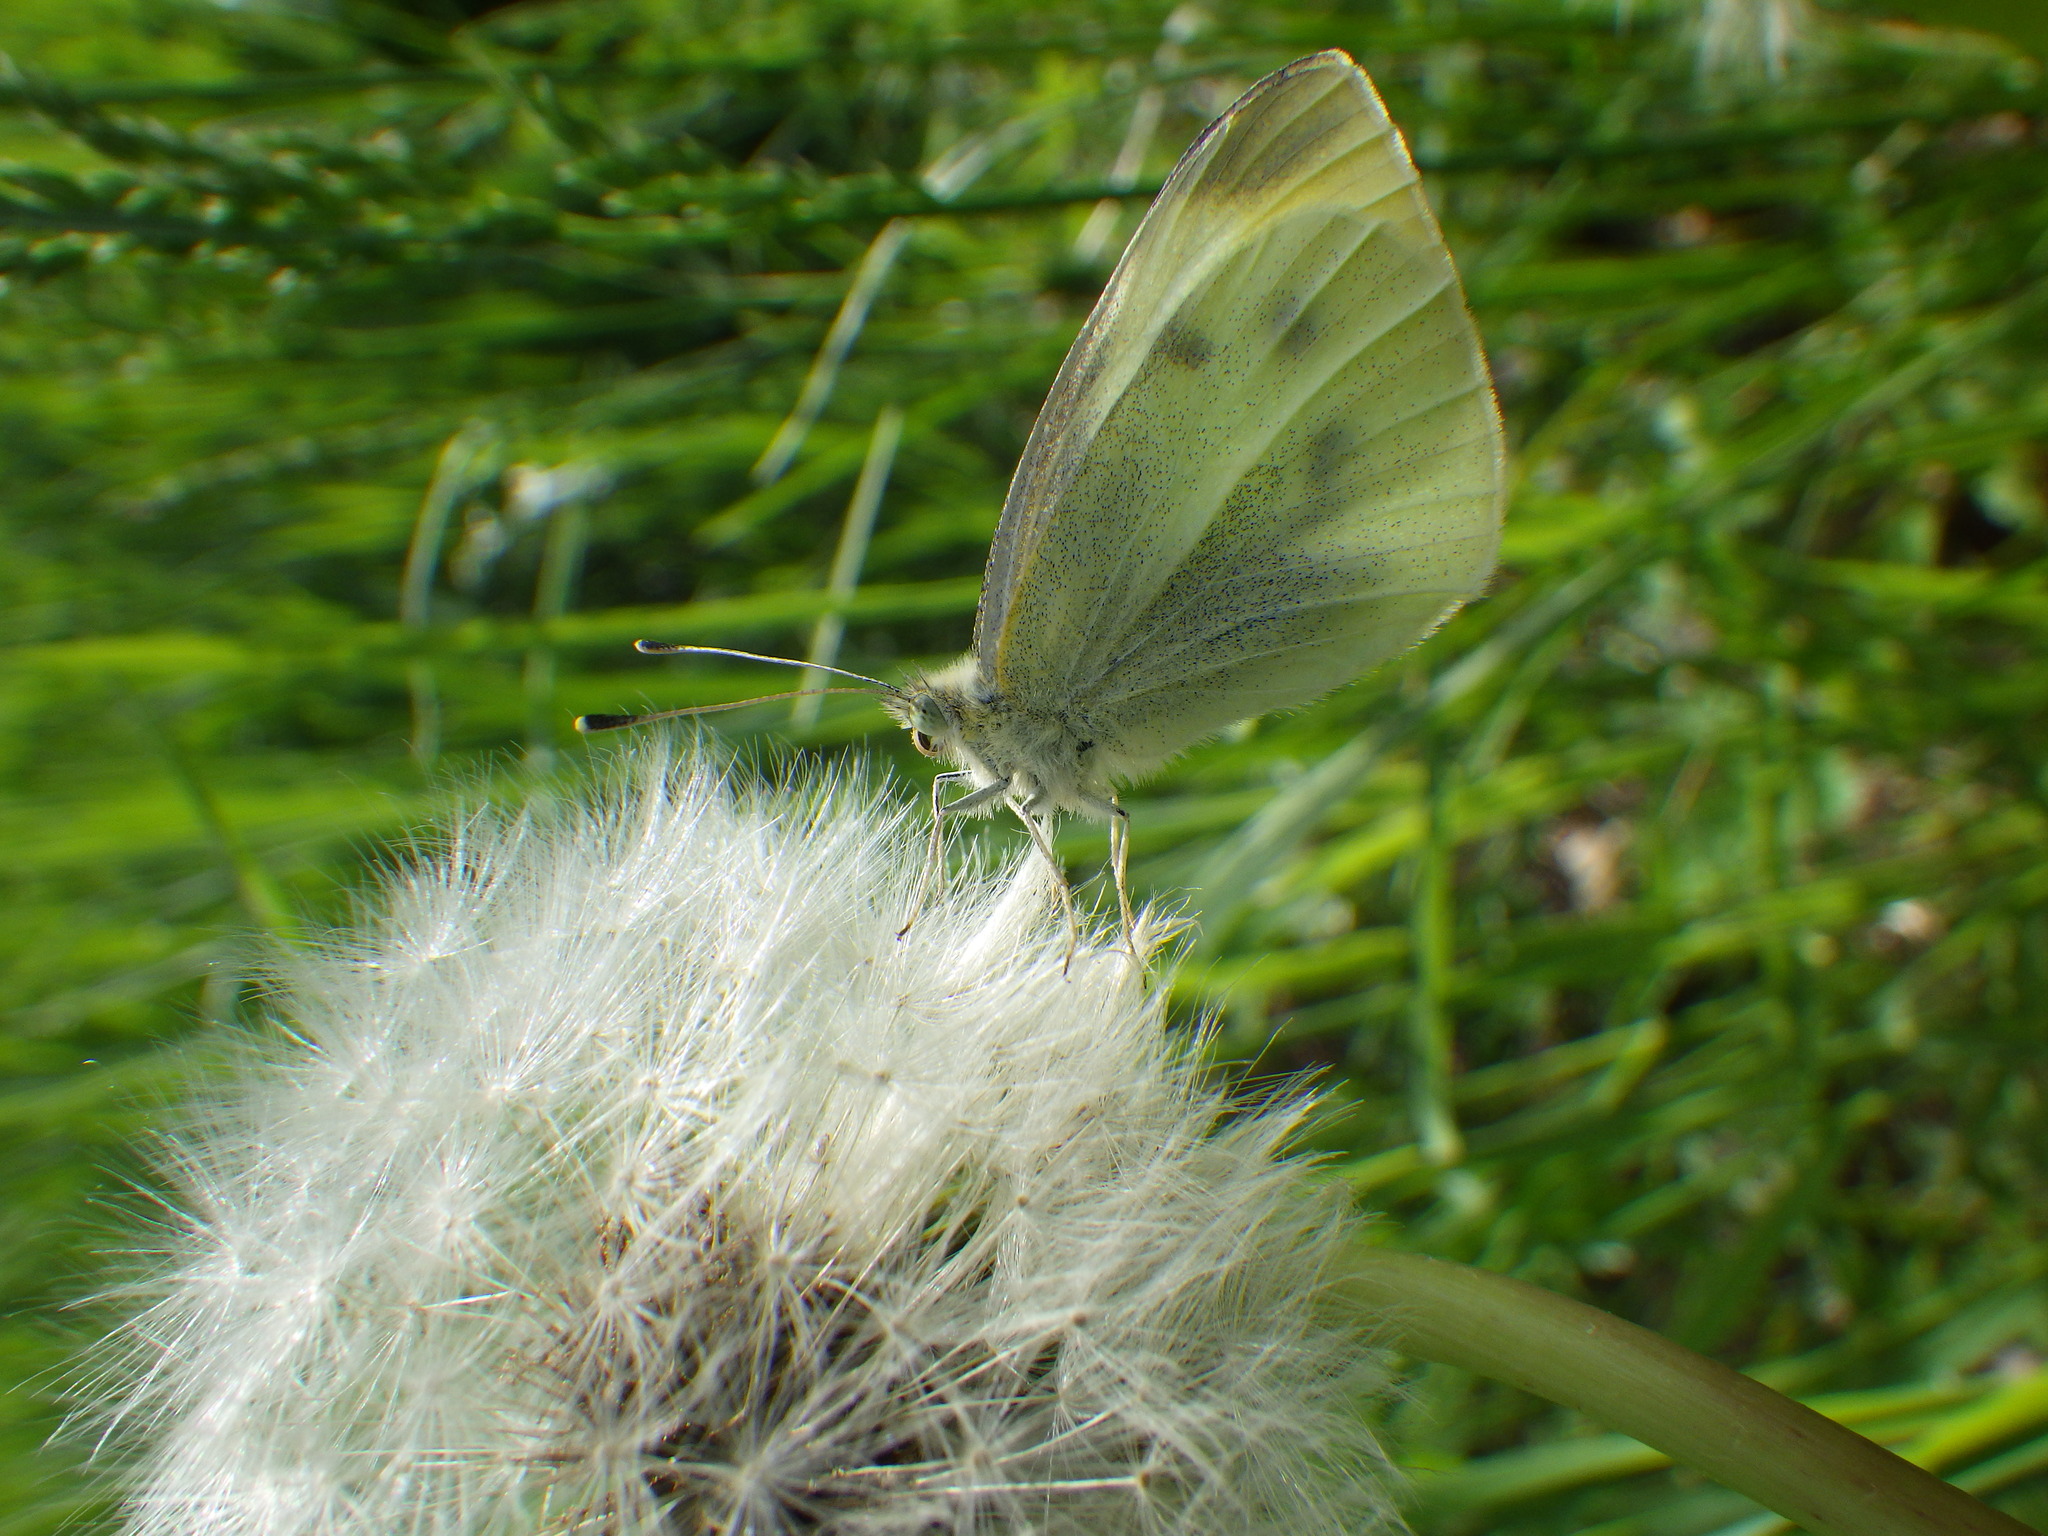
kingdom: Animalia
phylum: Arthropoda
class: Insecta
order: Lepidoptera
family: Pieridae
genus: Pieris
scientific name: Pieris rapae
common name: Small white
